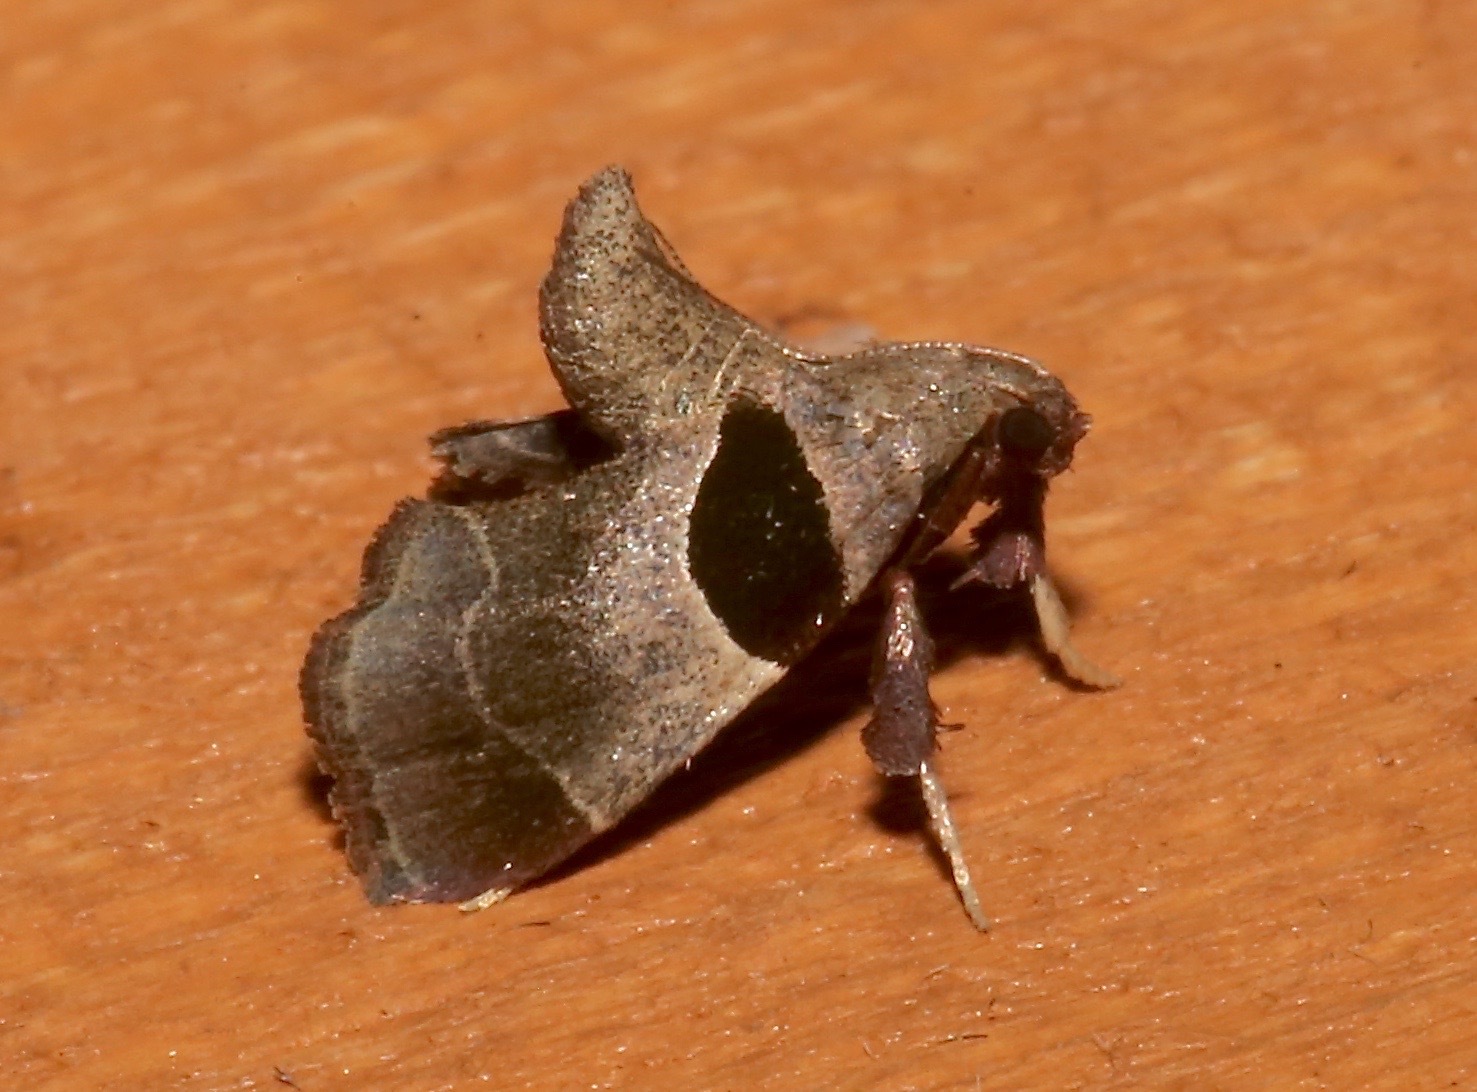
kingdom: Animalia
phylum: Arthropoda
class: Insecta
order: Lepidoptera
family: Pyralidae
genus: Tosale
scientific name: Tosale oviplagalis
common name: Dimorphic tosale moth
